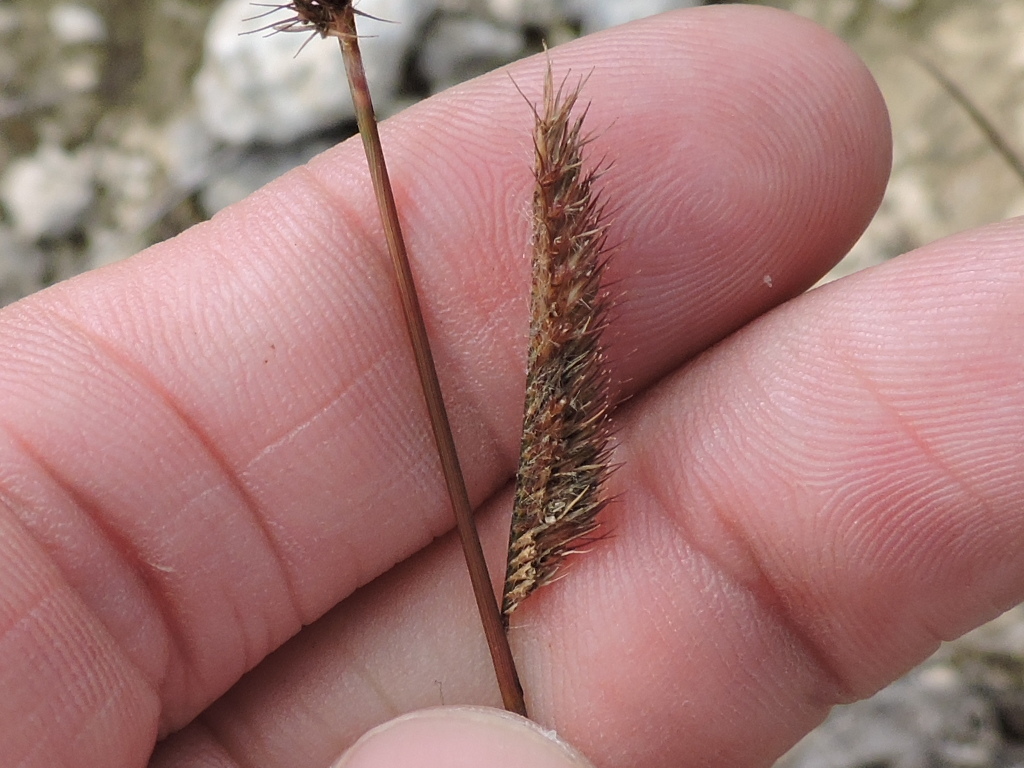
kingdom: Plantae
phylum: Tracheophyta
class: Liliopsida
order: Poales
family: Poaceae
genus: Bouteloua
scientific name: Bouteloua pectinata
